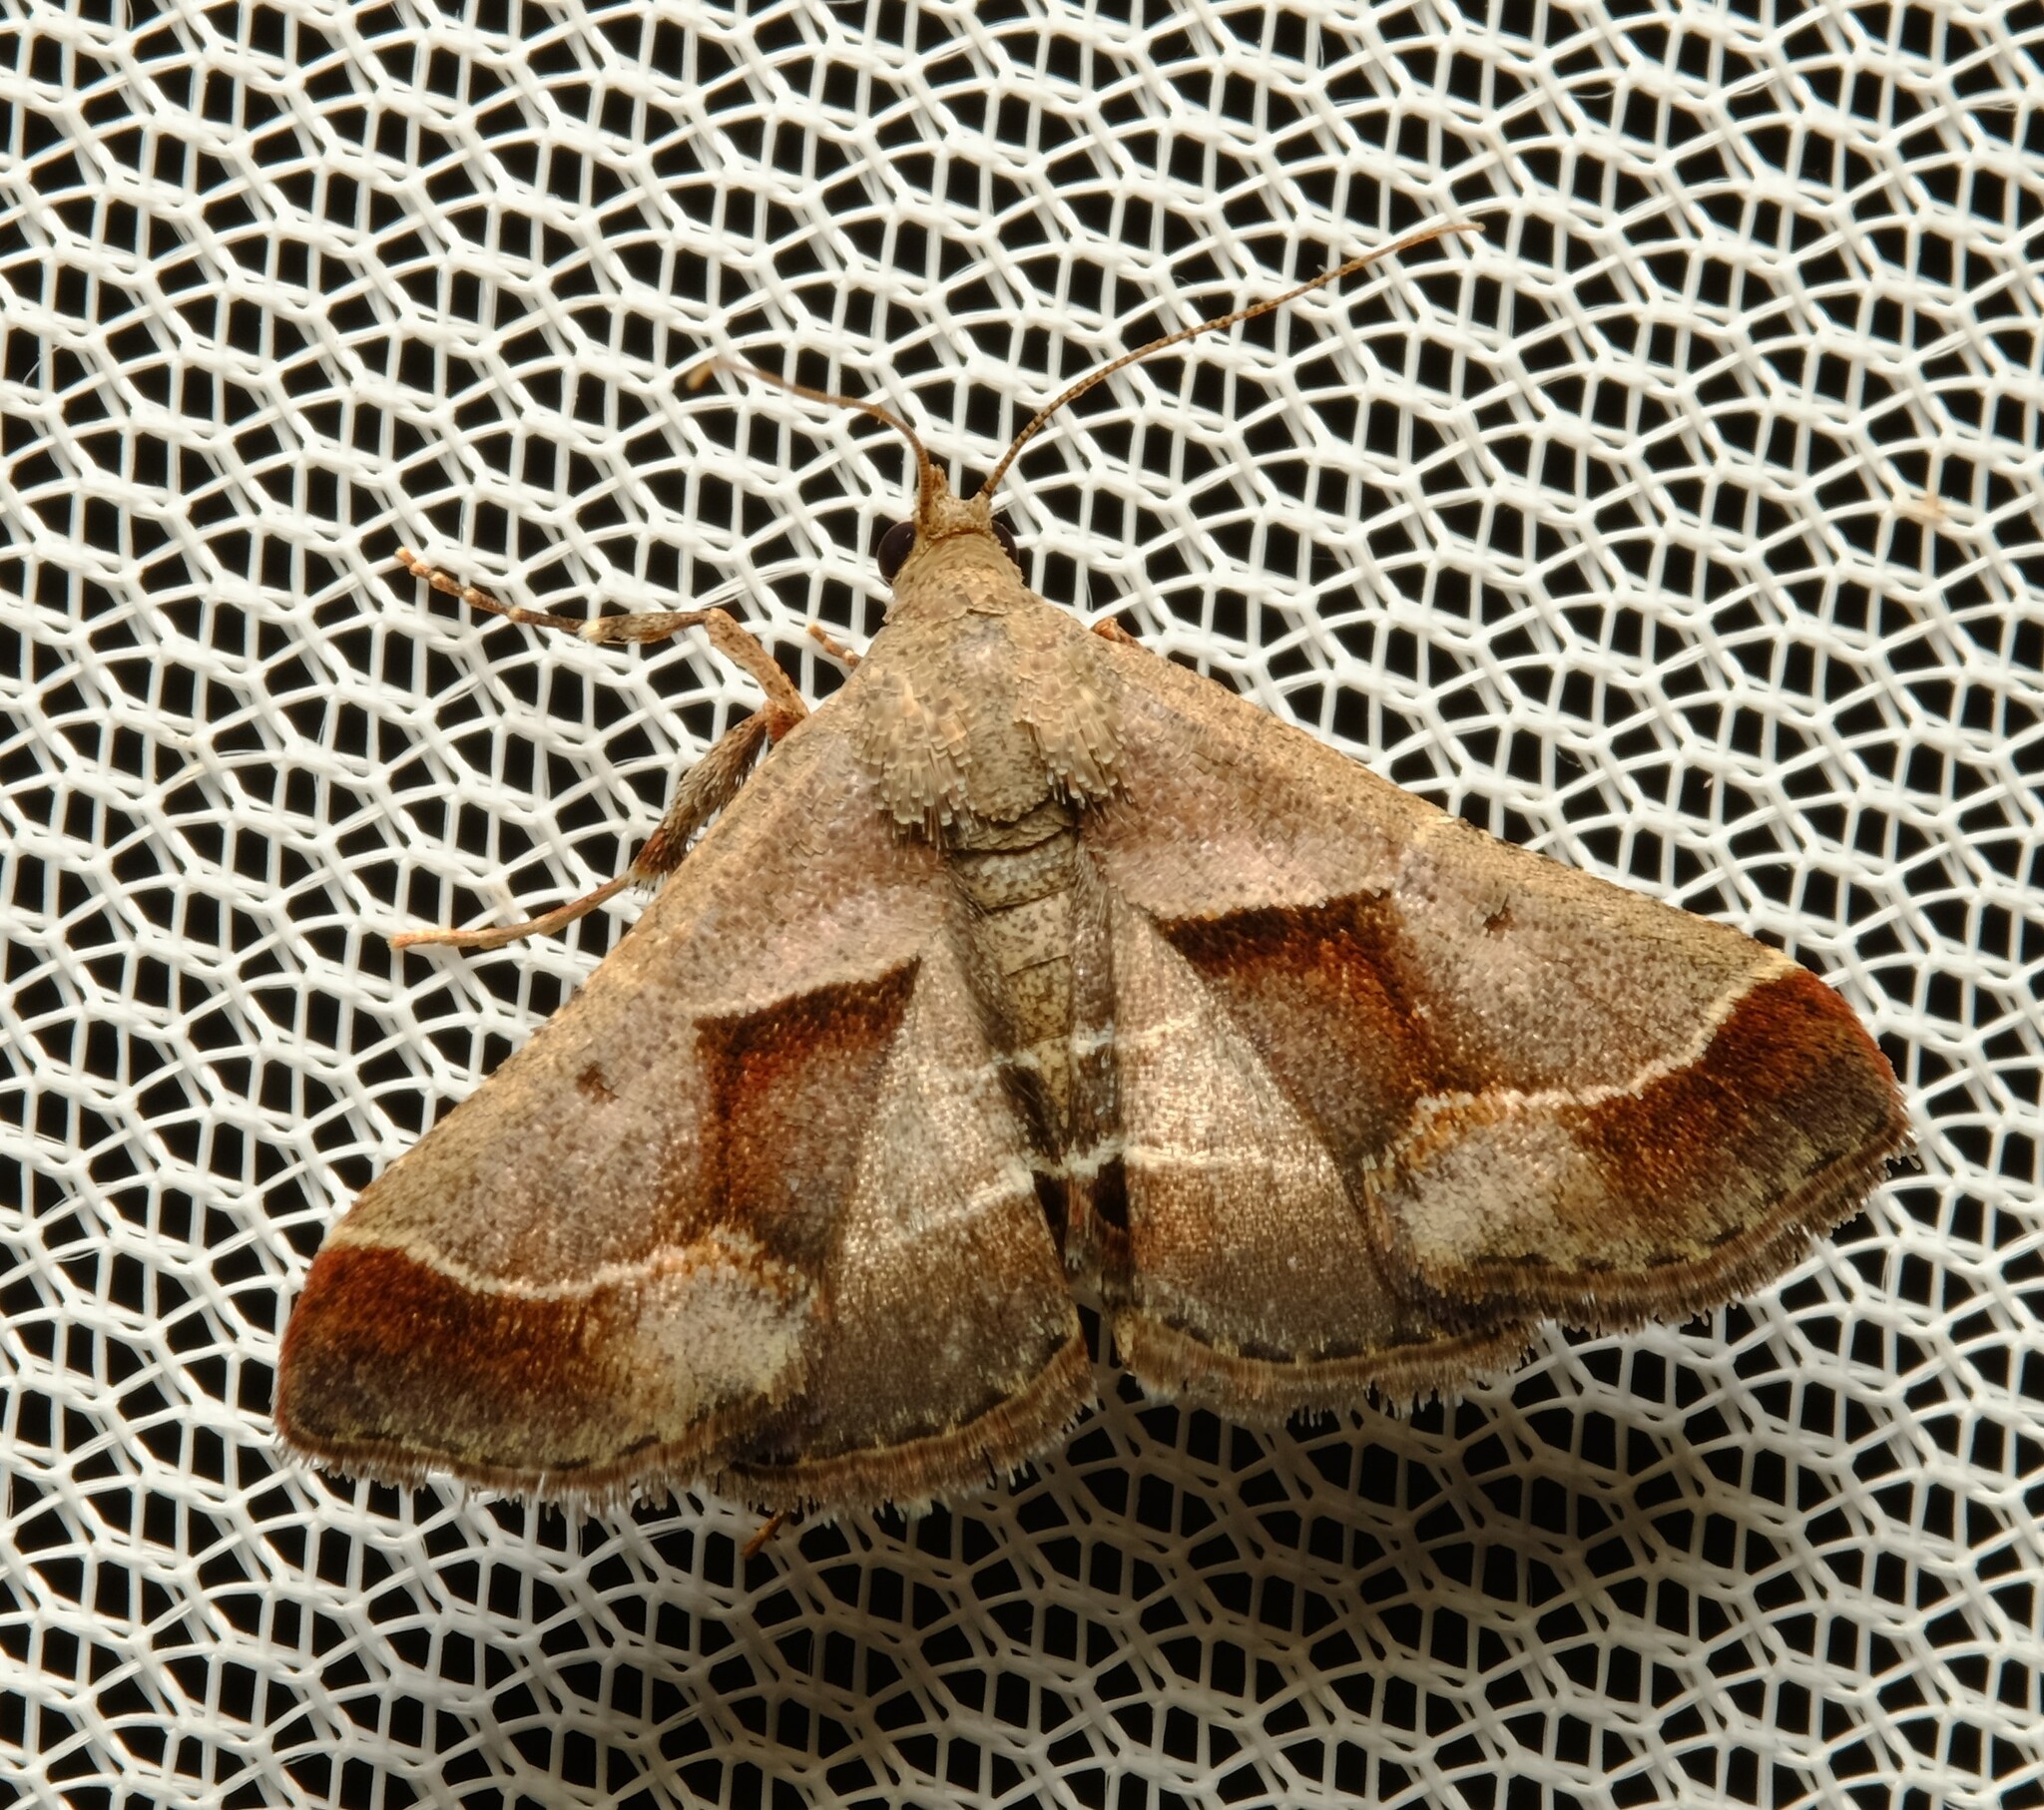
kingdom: Animalia
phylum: Arthropoda
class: Insecta
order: Lepidoptera
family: Pyralidae
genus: Gauna
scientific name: Gauna aegusalis
